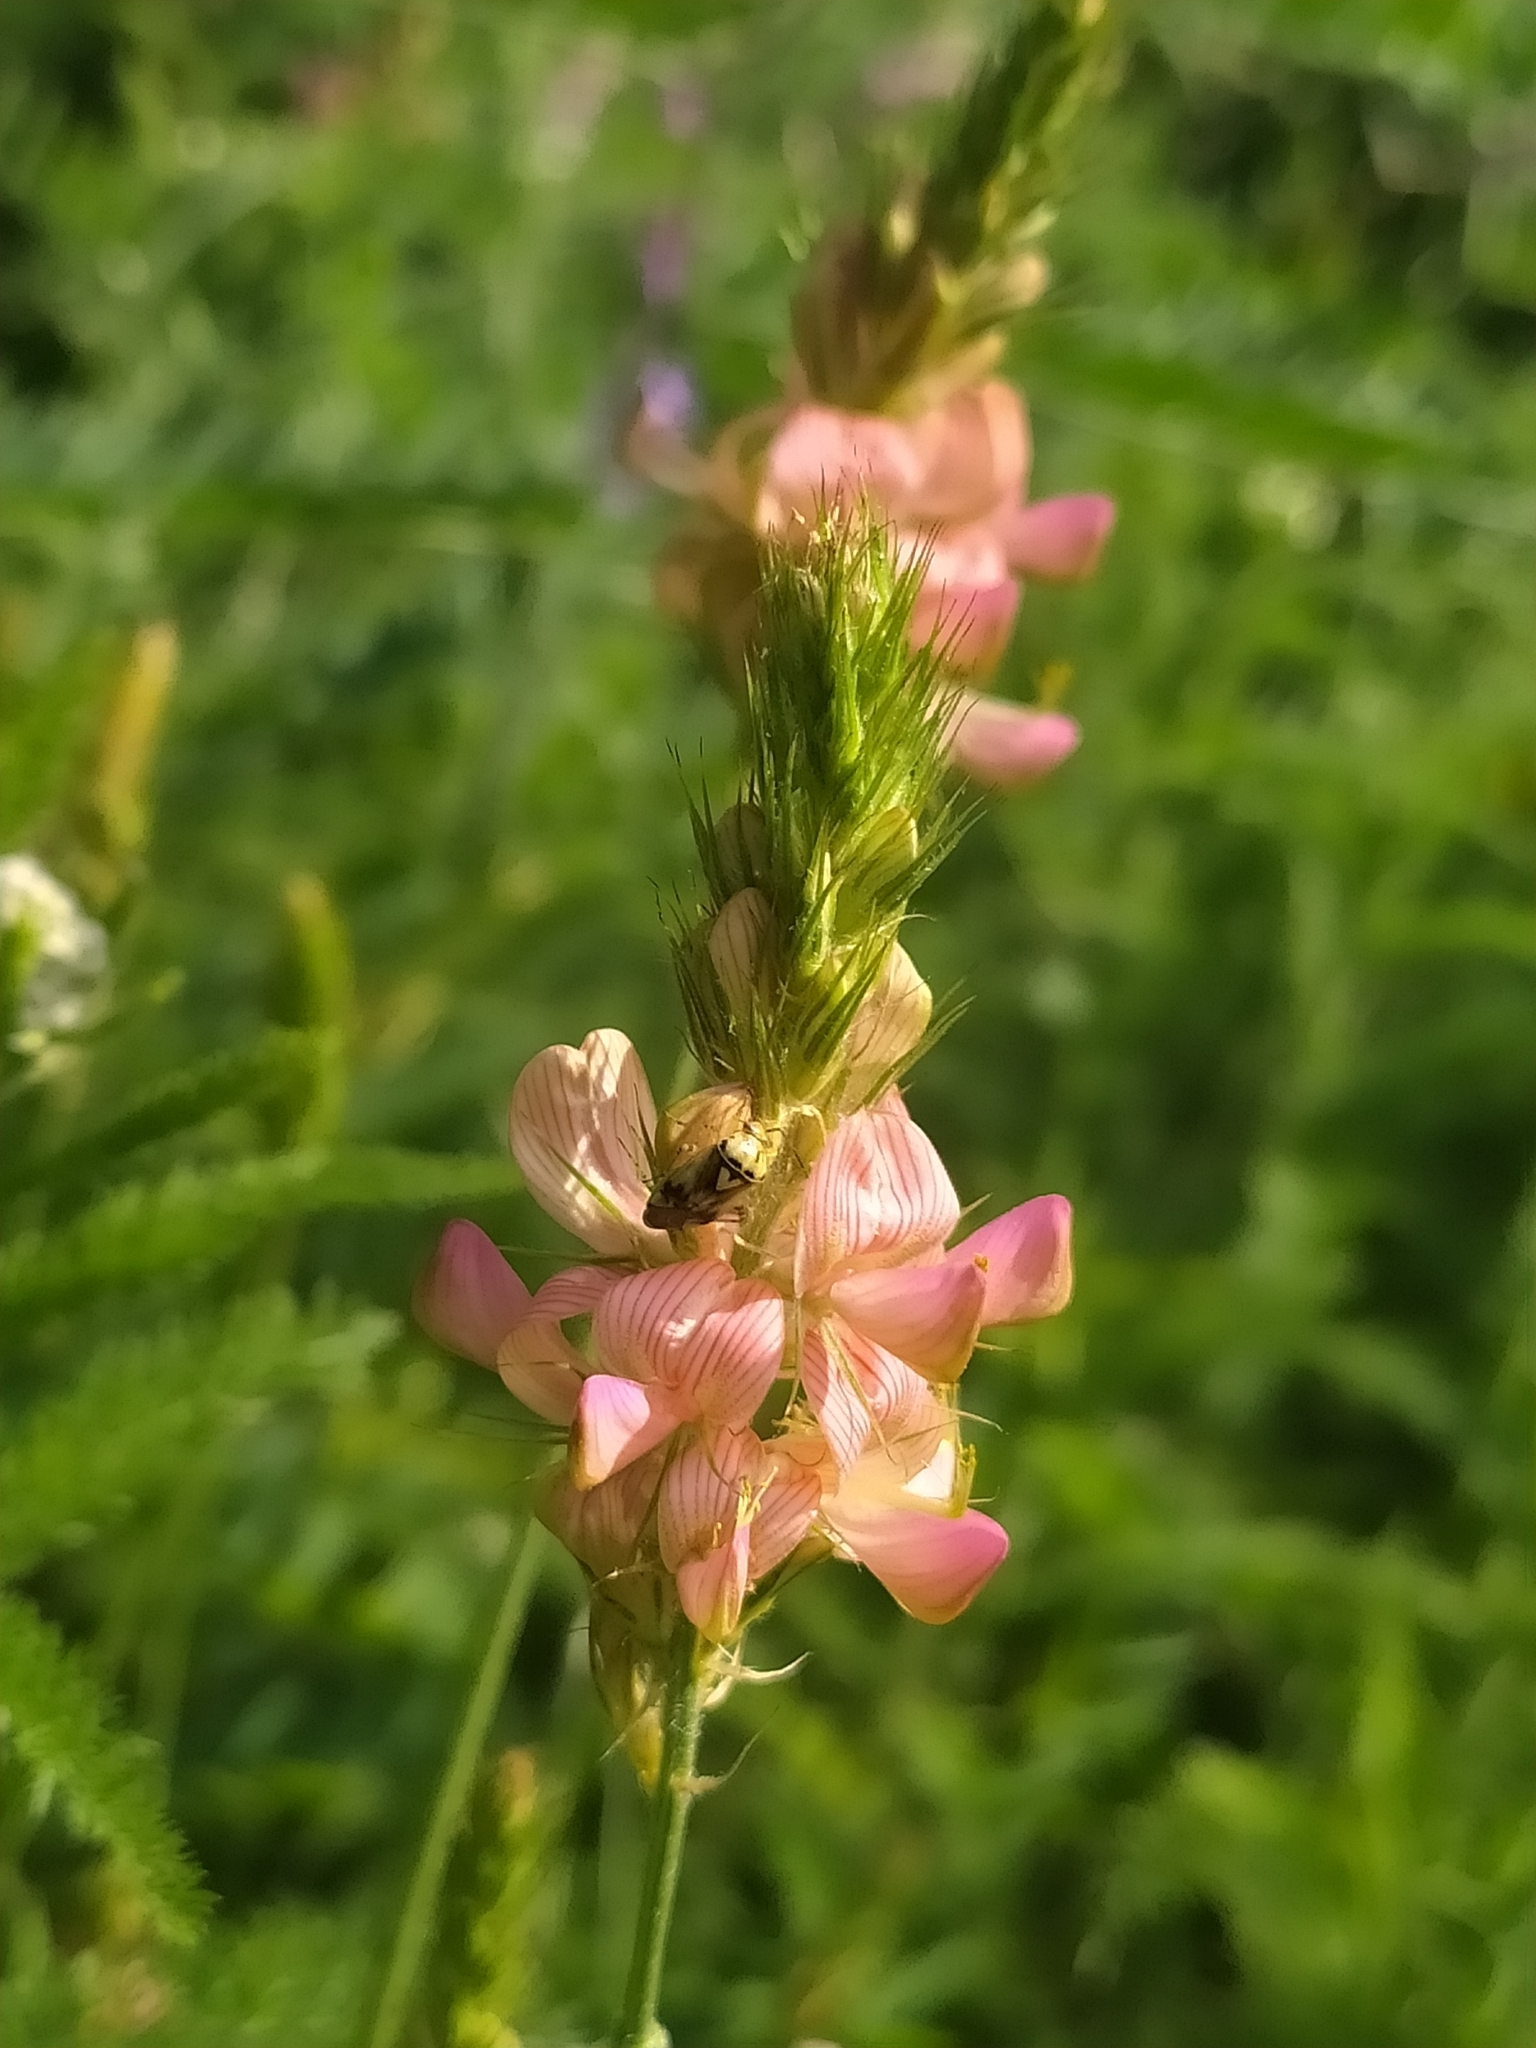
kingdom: Plantae
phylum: Tracheophyta
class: Magnoliopsida
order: Fabales
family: Fabaceae
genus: Onobrychis
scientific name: Onobrychis viciifolia
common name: Sainfoin
